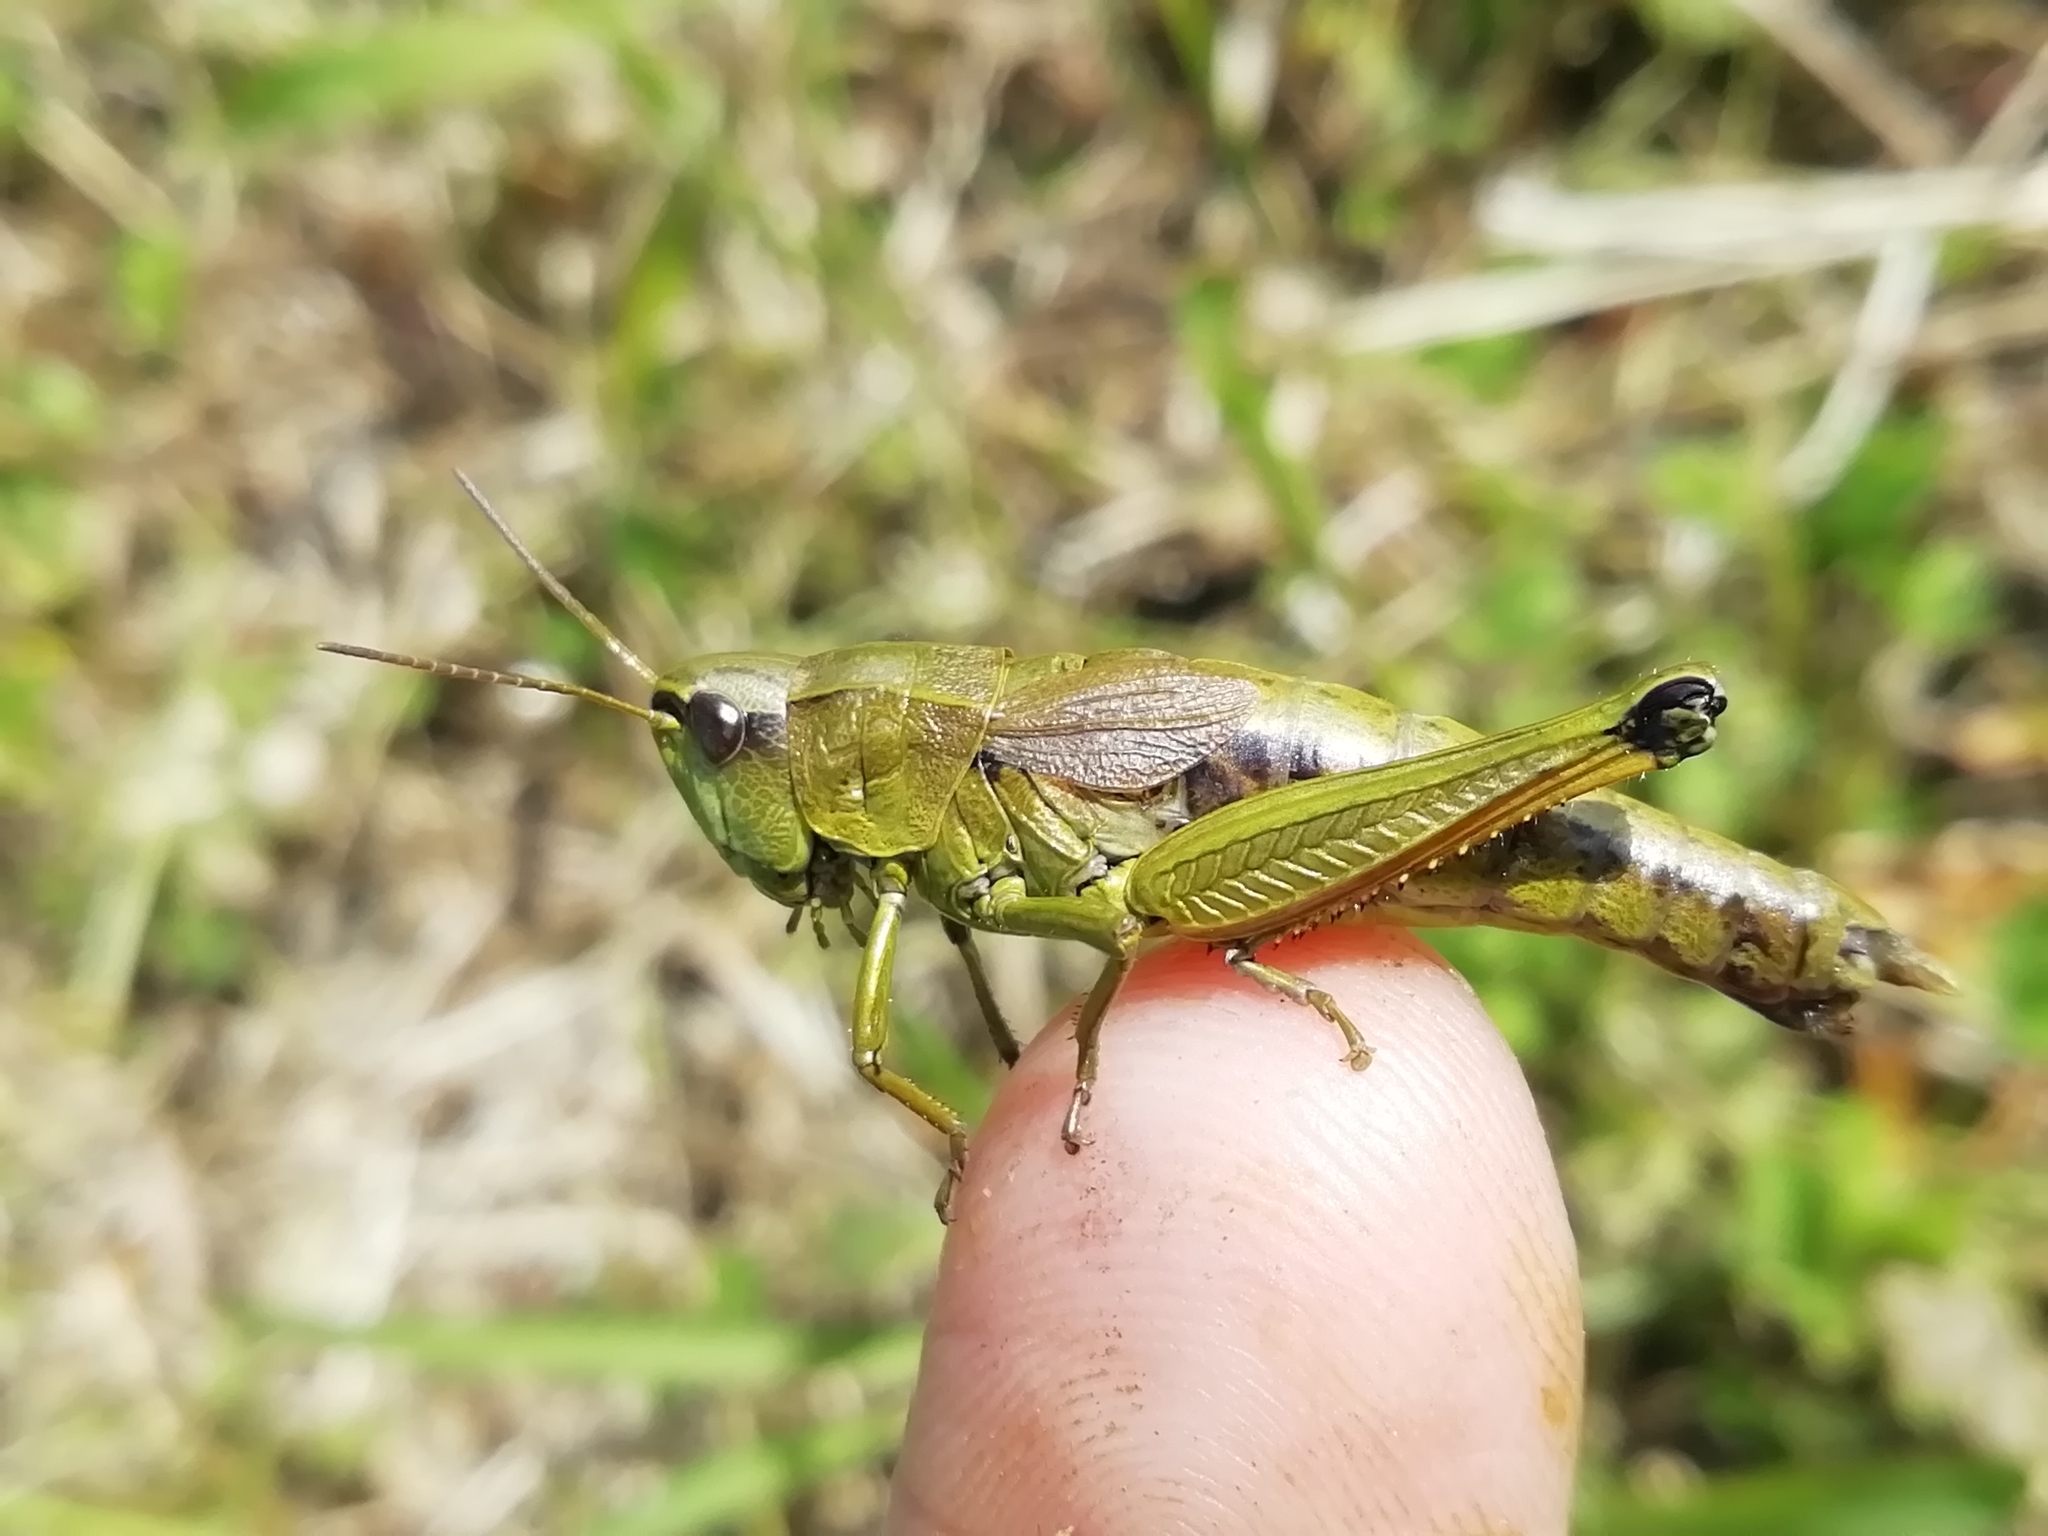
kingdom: Animalia
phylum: Arthropoda
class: Insecta
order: Orthoptera
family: Acrididae
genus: Podismopsis
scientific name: Podismopsis poppiusi
